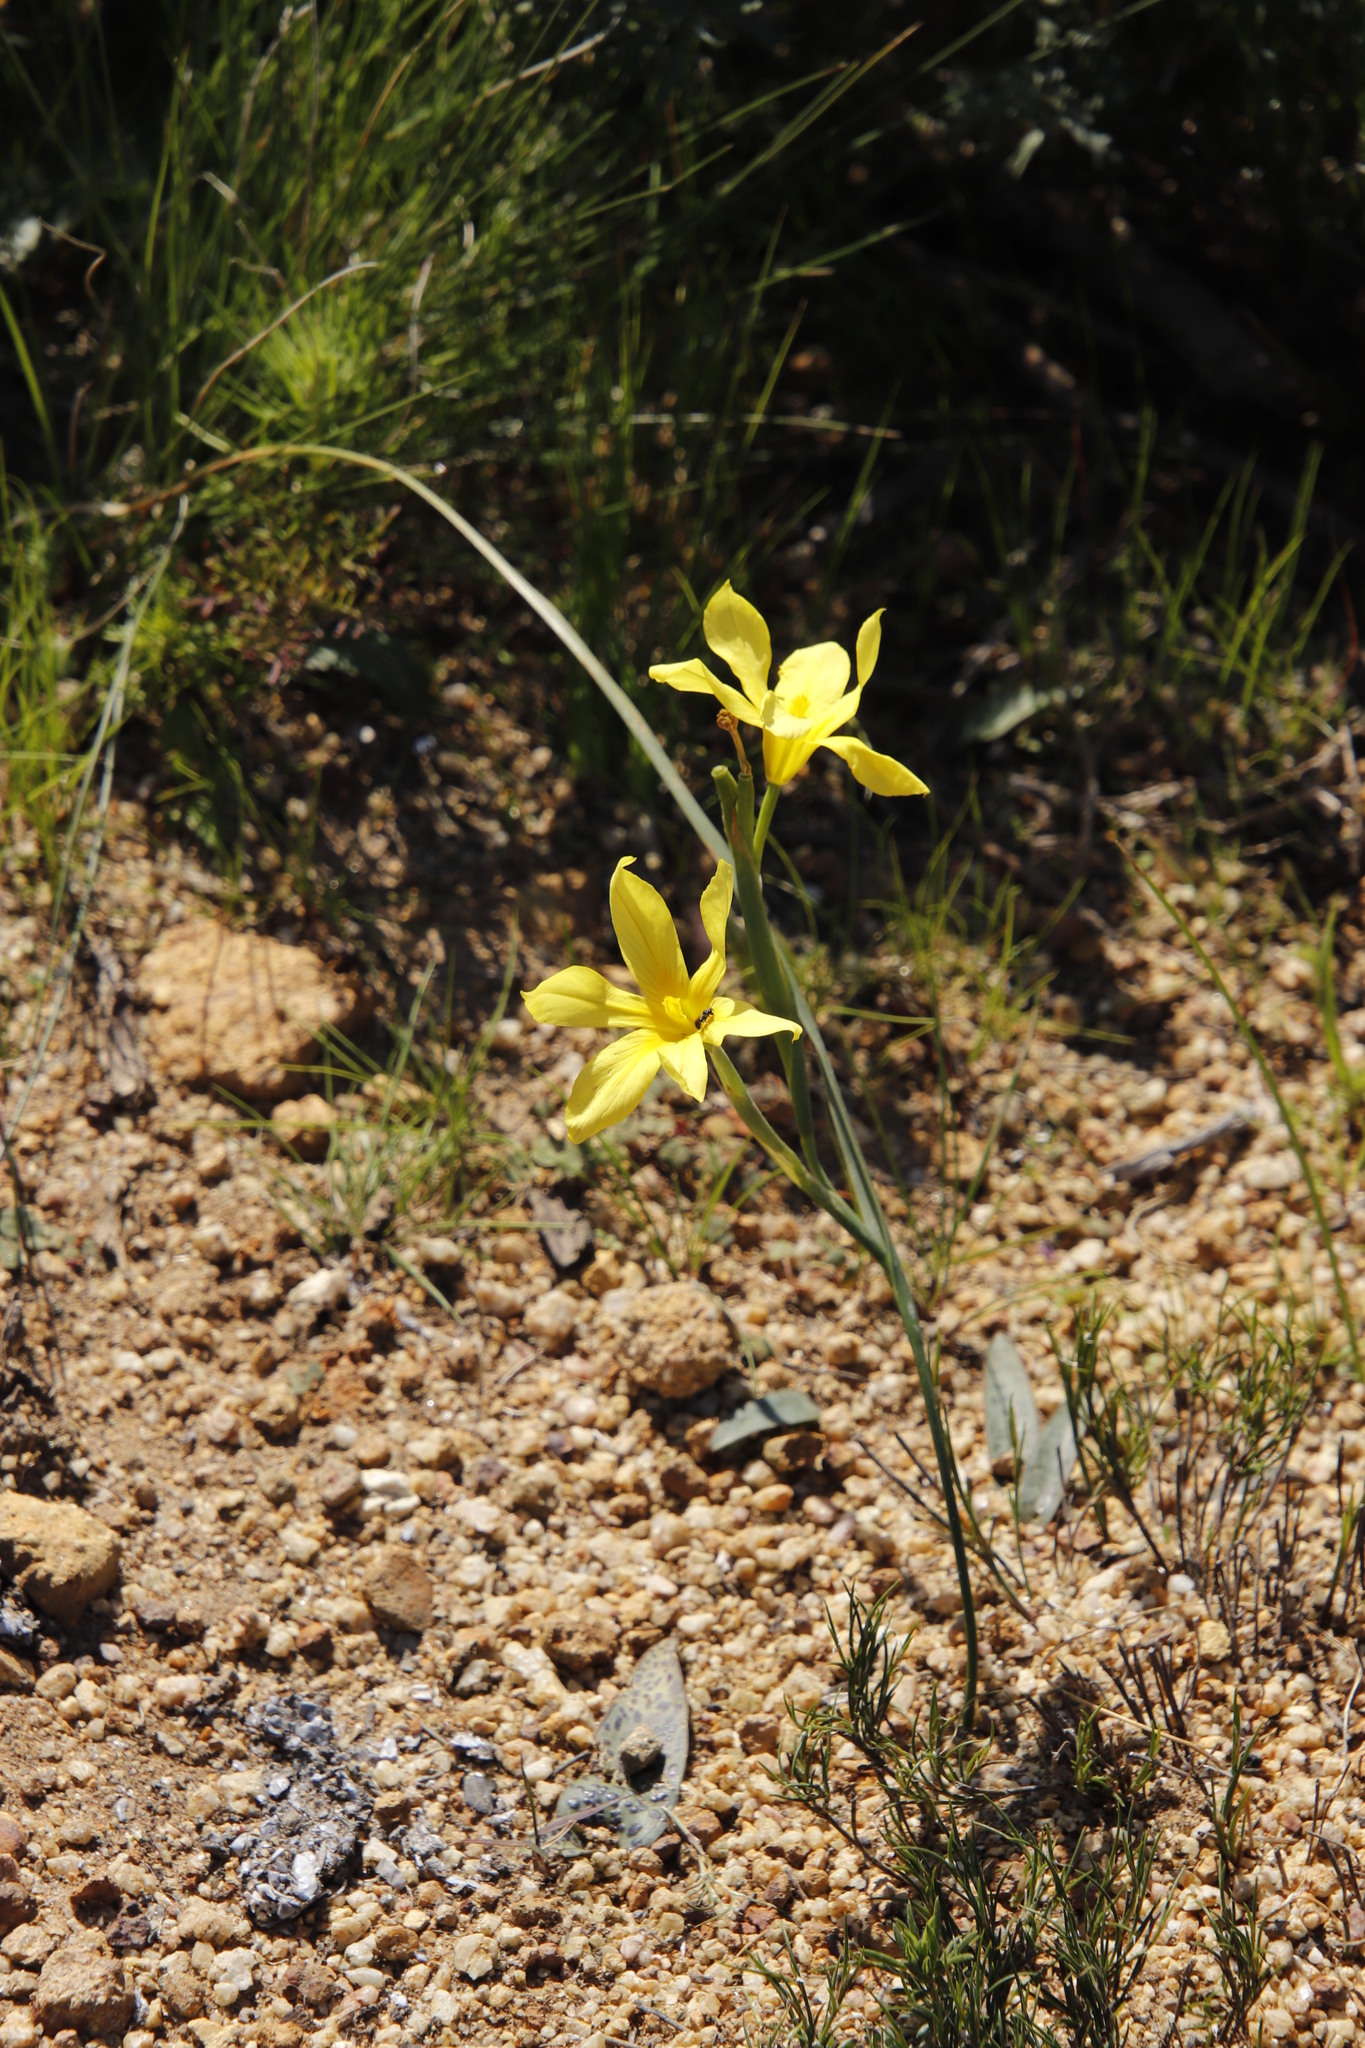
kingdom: Plantae
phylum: Tracheophyta
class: Liliopsida
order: Asparagales
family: Iridaceae
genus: Moraea
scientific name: Moraea collina
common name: Cape-tulip
